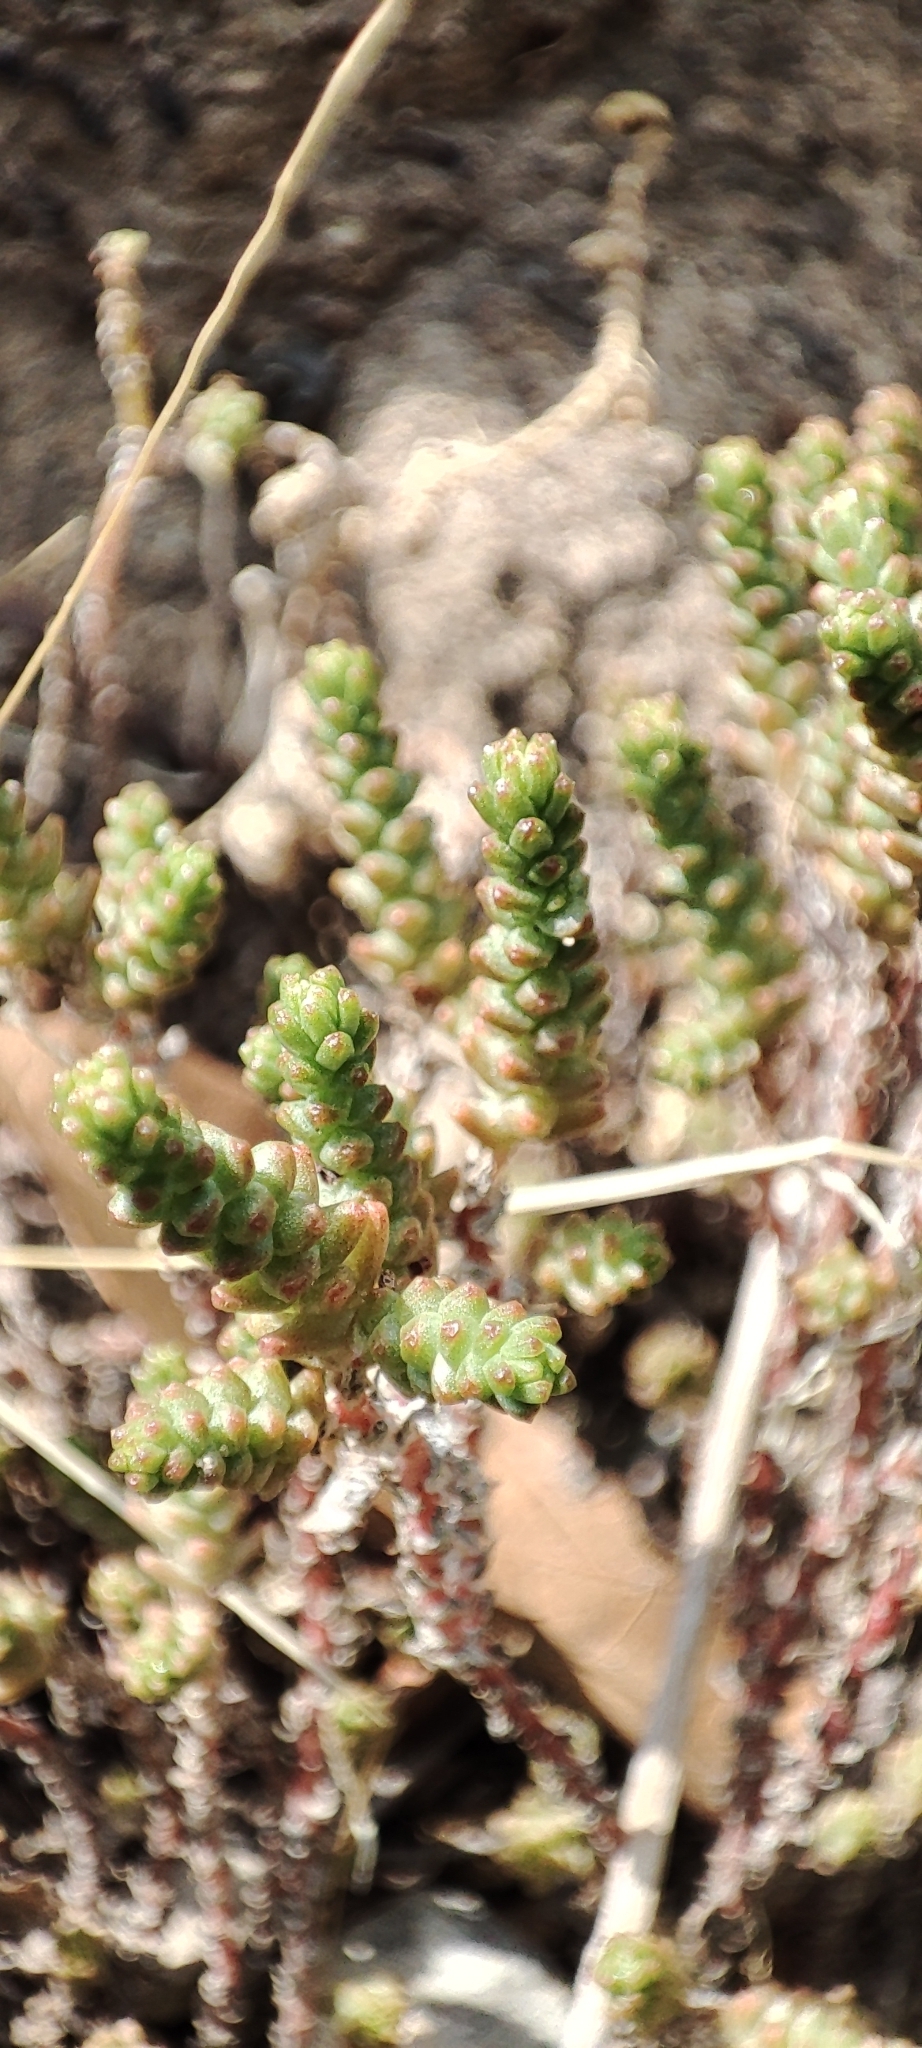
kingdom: Plantae
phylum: Tracheophyta
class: Magnoliopsida
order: Saxifragales
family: Crassulaceae
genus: Sedum
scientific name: Sedum moranense
